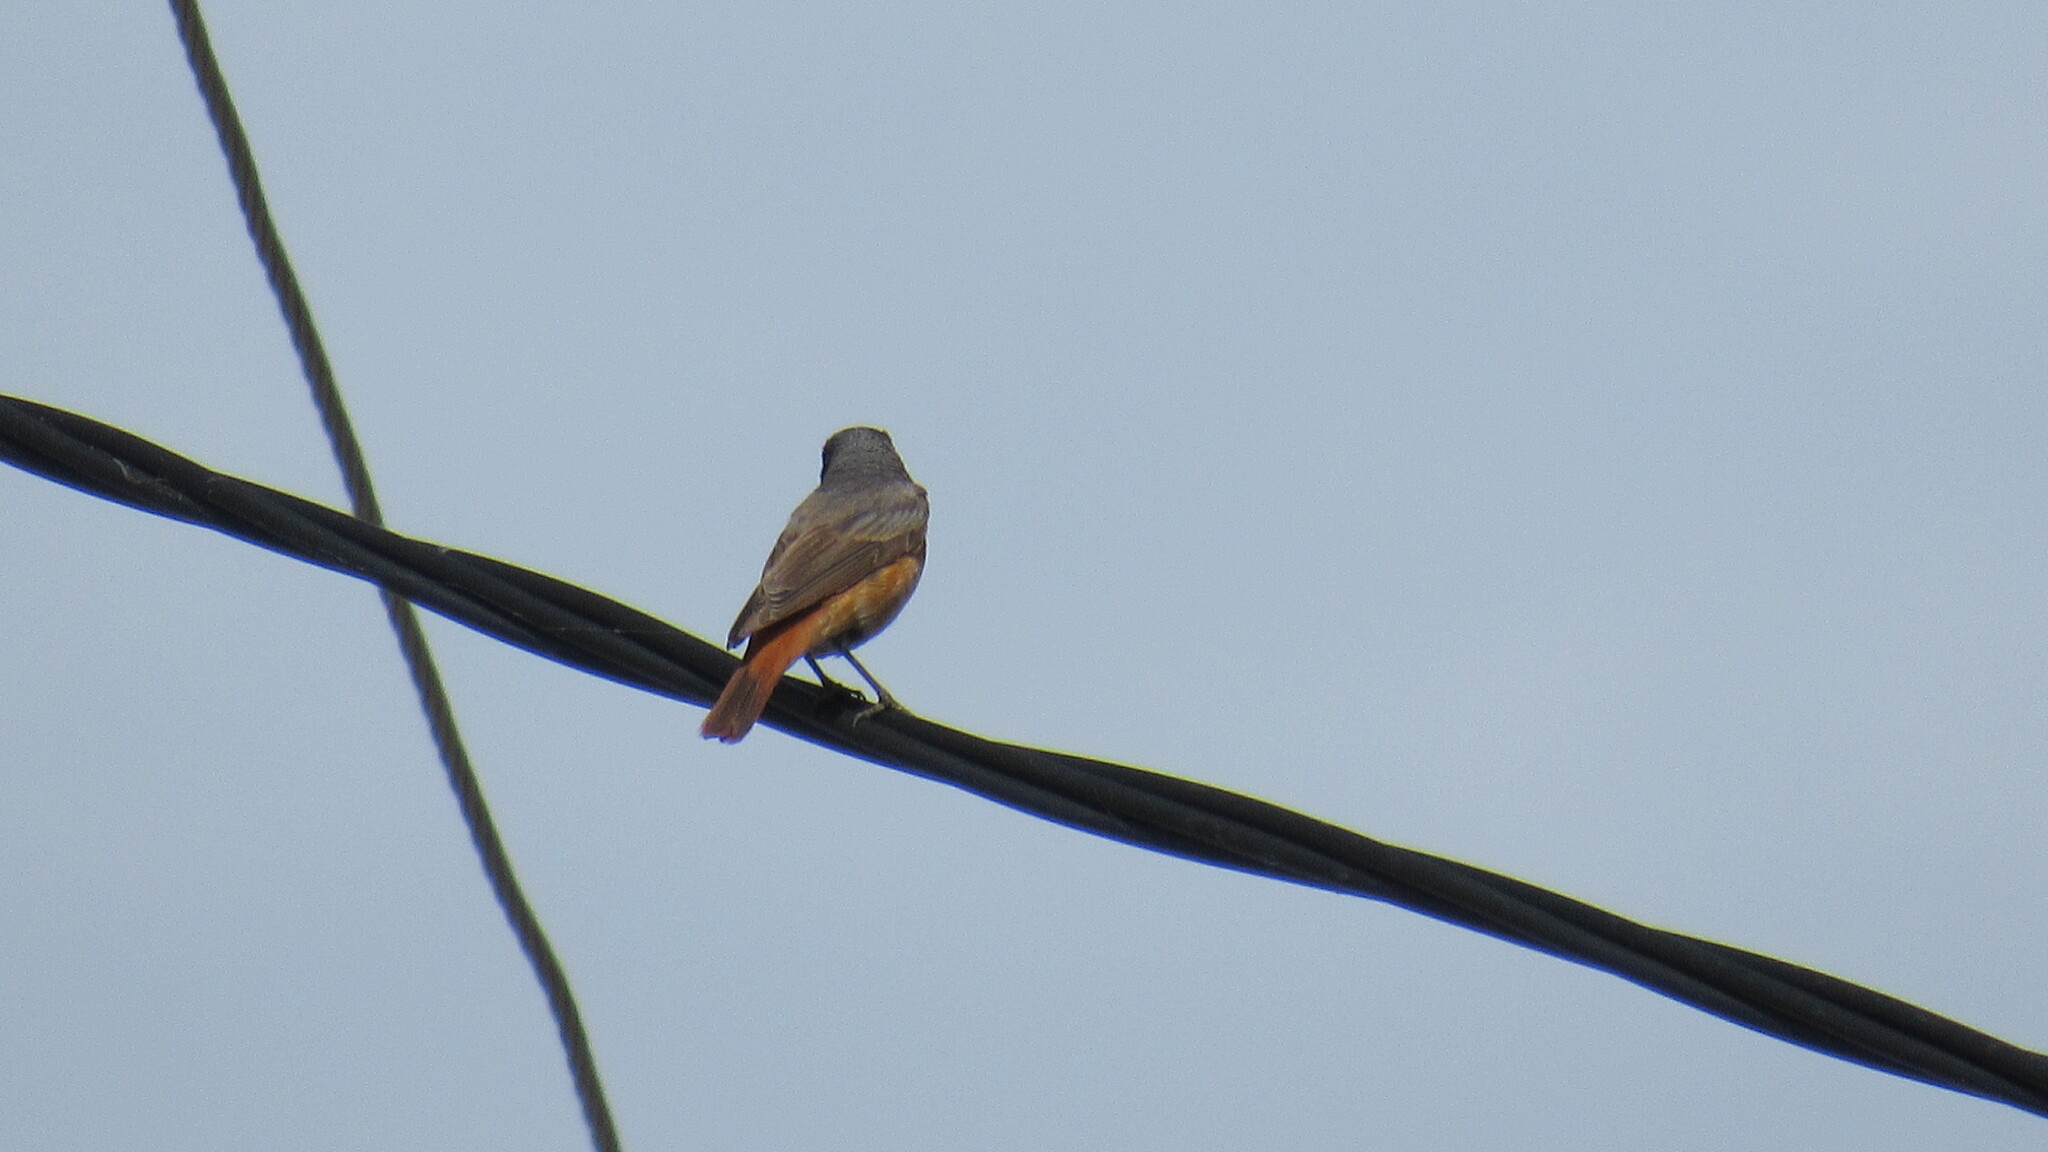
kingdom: Animalia
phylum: Chordata
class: Aves
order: Passeriformes
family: Muscicapidae
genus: Phoenicurus
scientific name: Phoenicurus phoenicurus
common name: Common redstart
